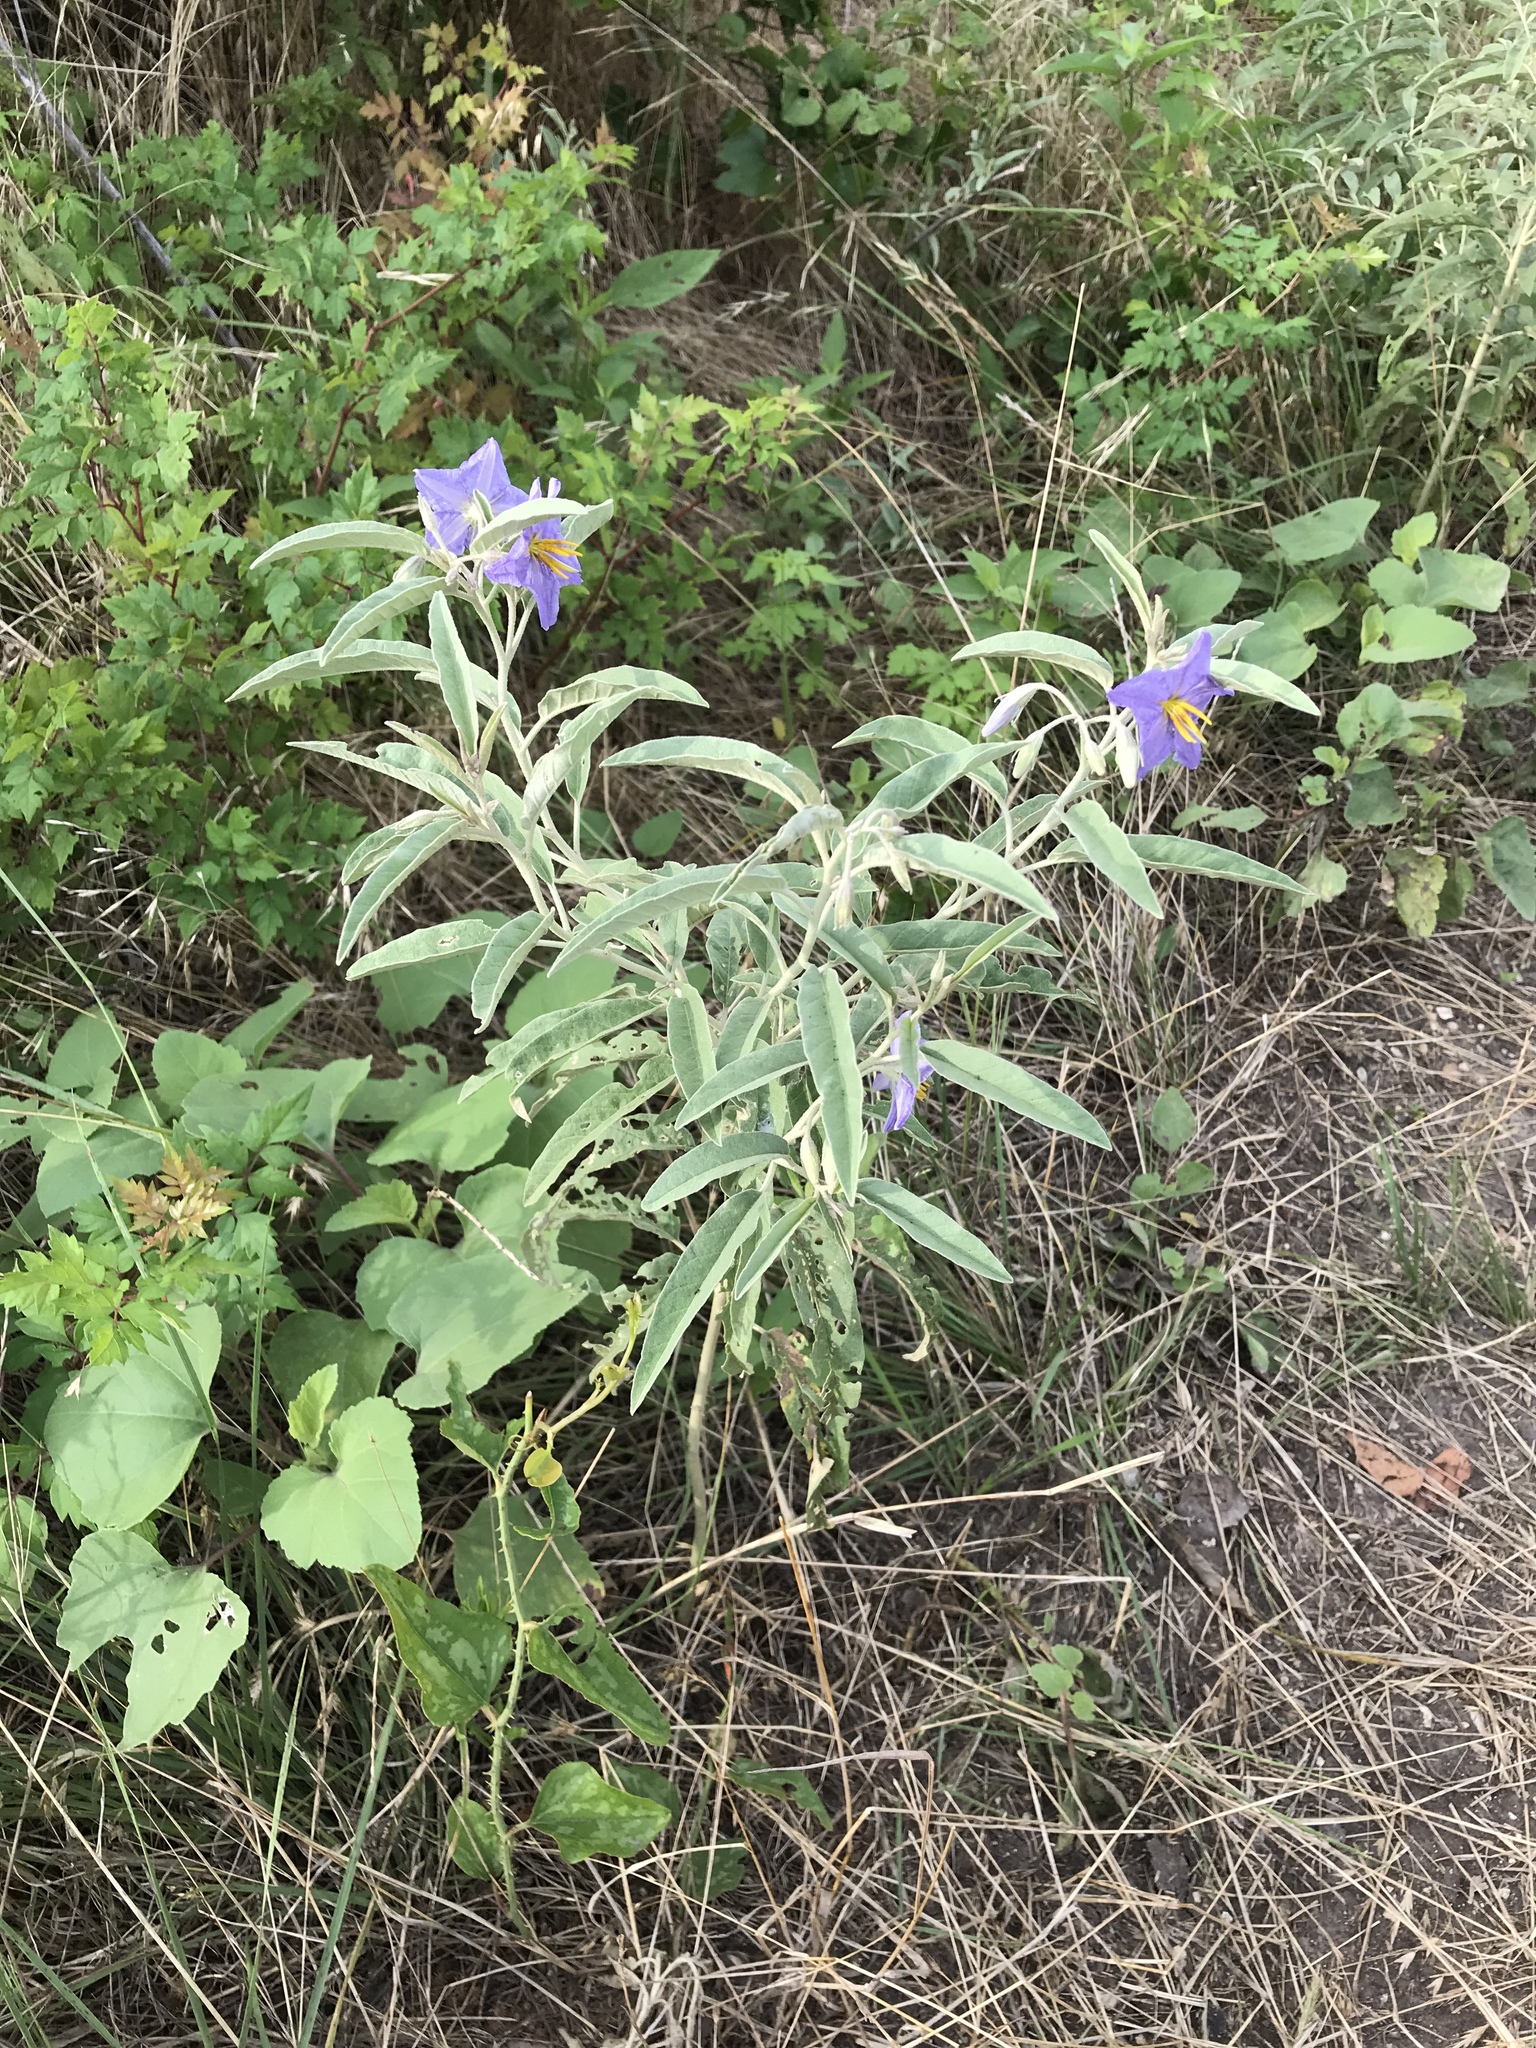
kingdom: Plantae
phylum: Tracheophyta
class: Magnoliopsida
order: Solanales
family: Solanaceae
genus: Solanum
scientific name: Solanum elaeagnifolium
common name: Silverleaf nightshade
